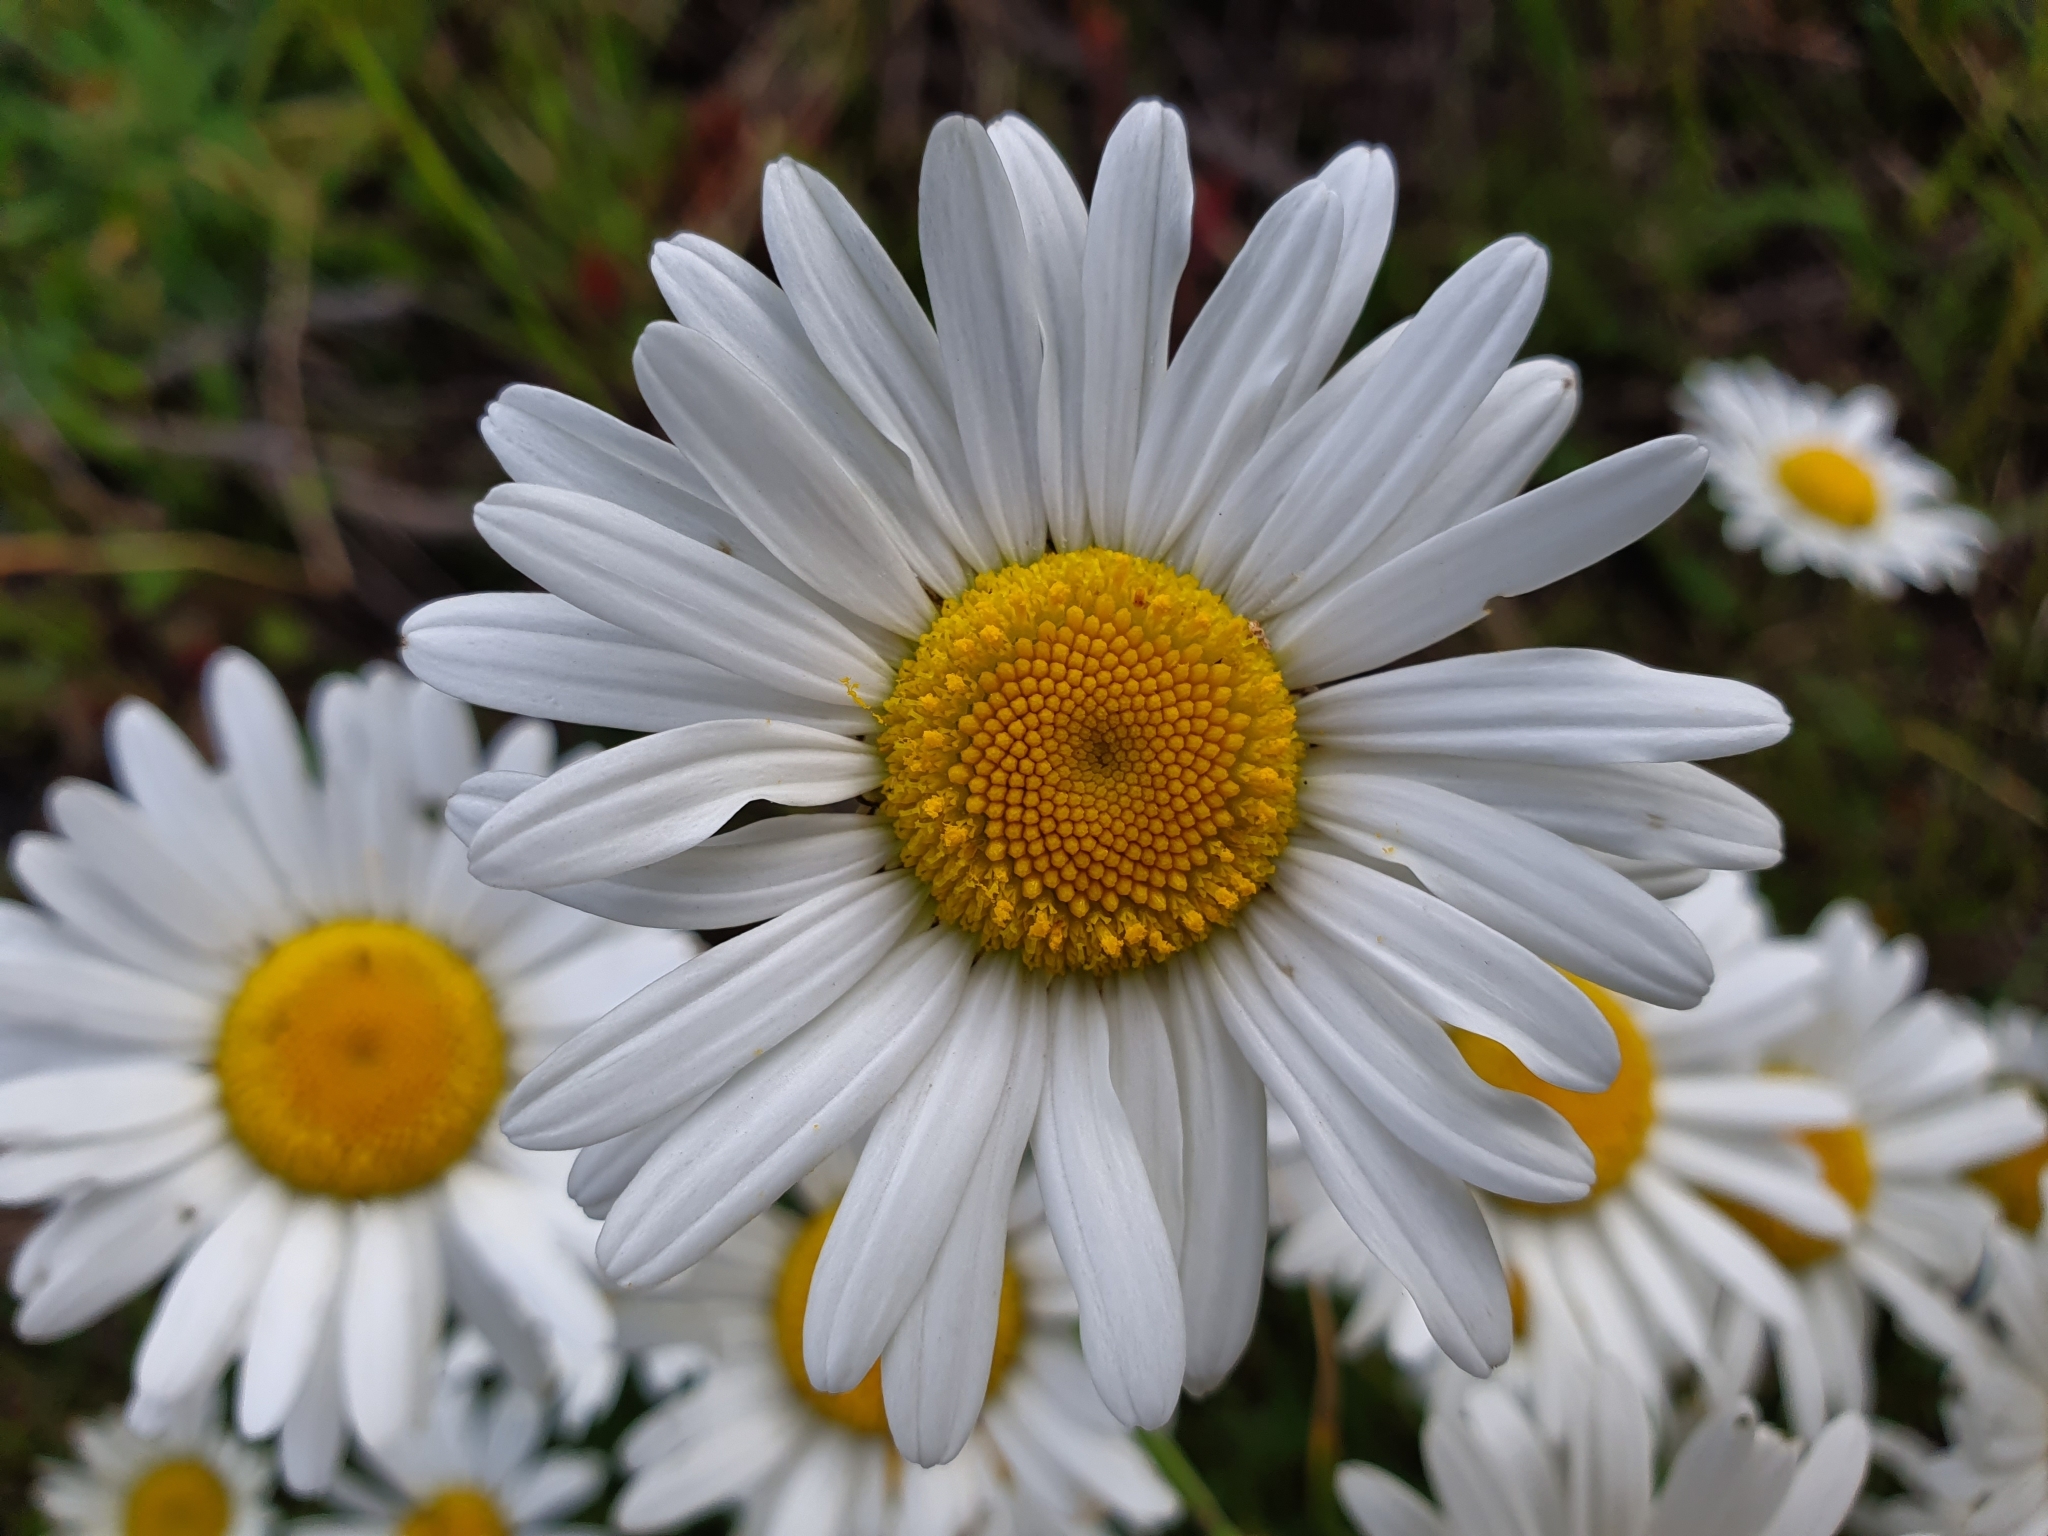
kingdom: Plantae
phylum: Tracheophyta
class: Magnoliopsida
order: Asterales
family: Asteraceae
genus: Leucanthemum
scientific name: Leucanthemum vulgare
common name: Oxeye daisy
